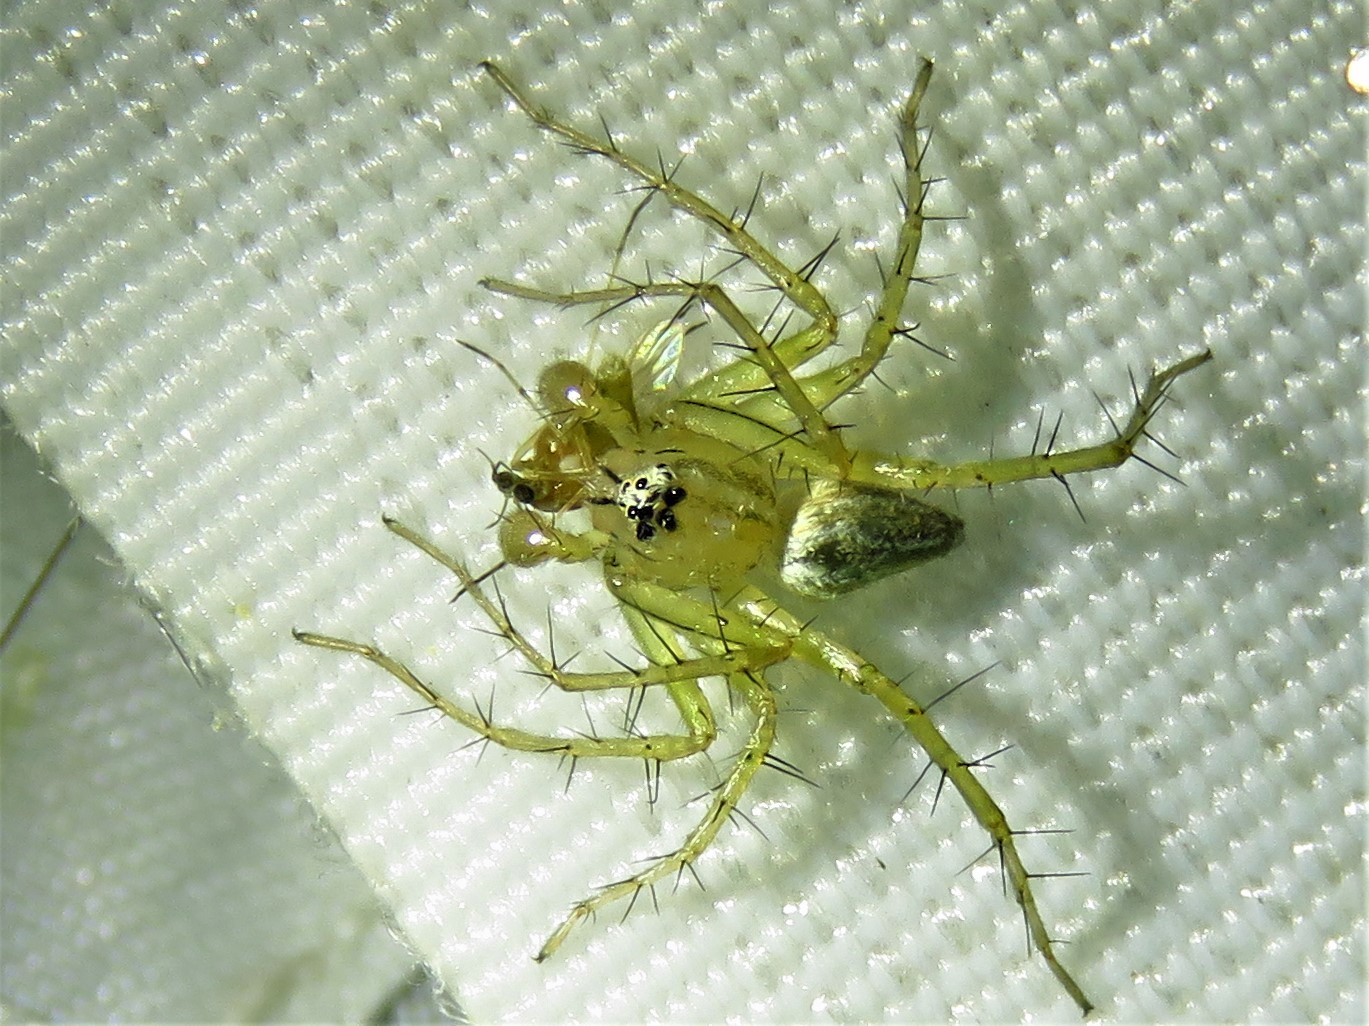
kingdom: Animalia
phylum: Arthropoda
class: Arachnida
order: Araneae
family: Oxyopidae
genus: Oxyopes
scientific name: Oxyopes salticus
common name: Lynx spiders
